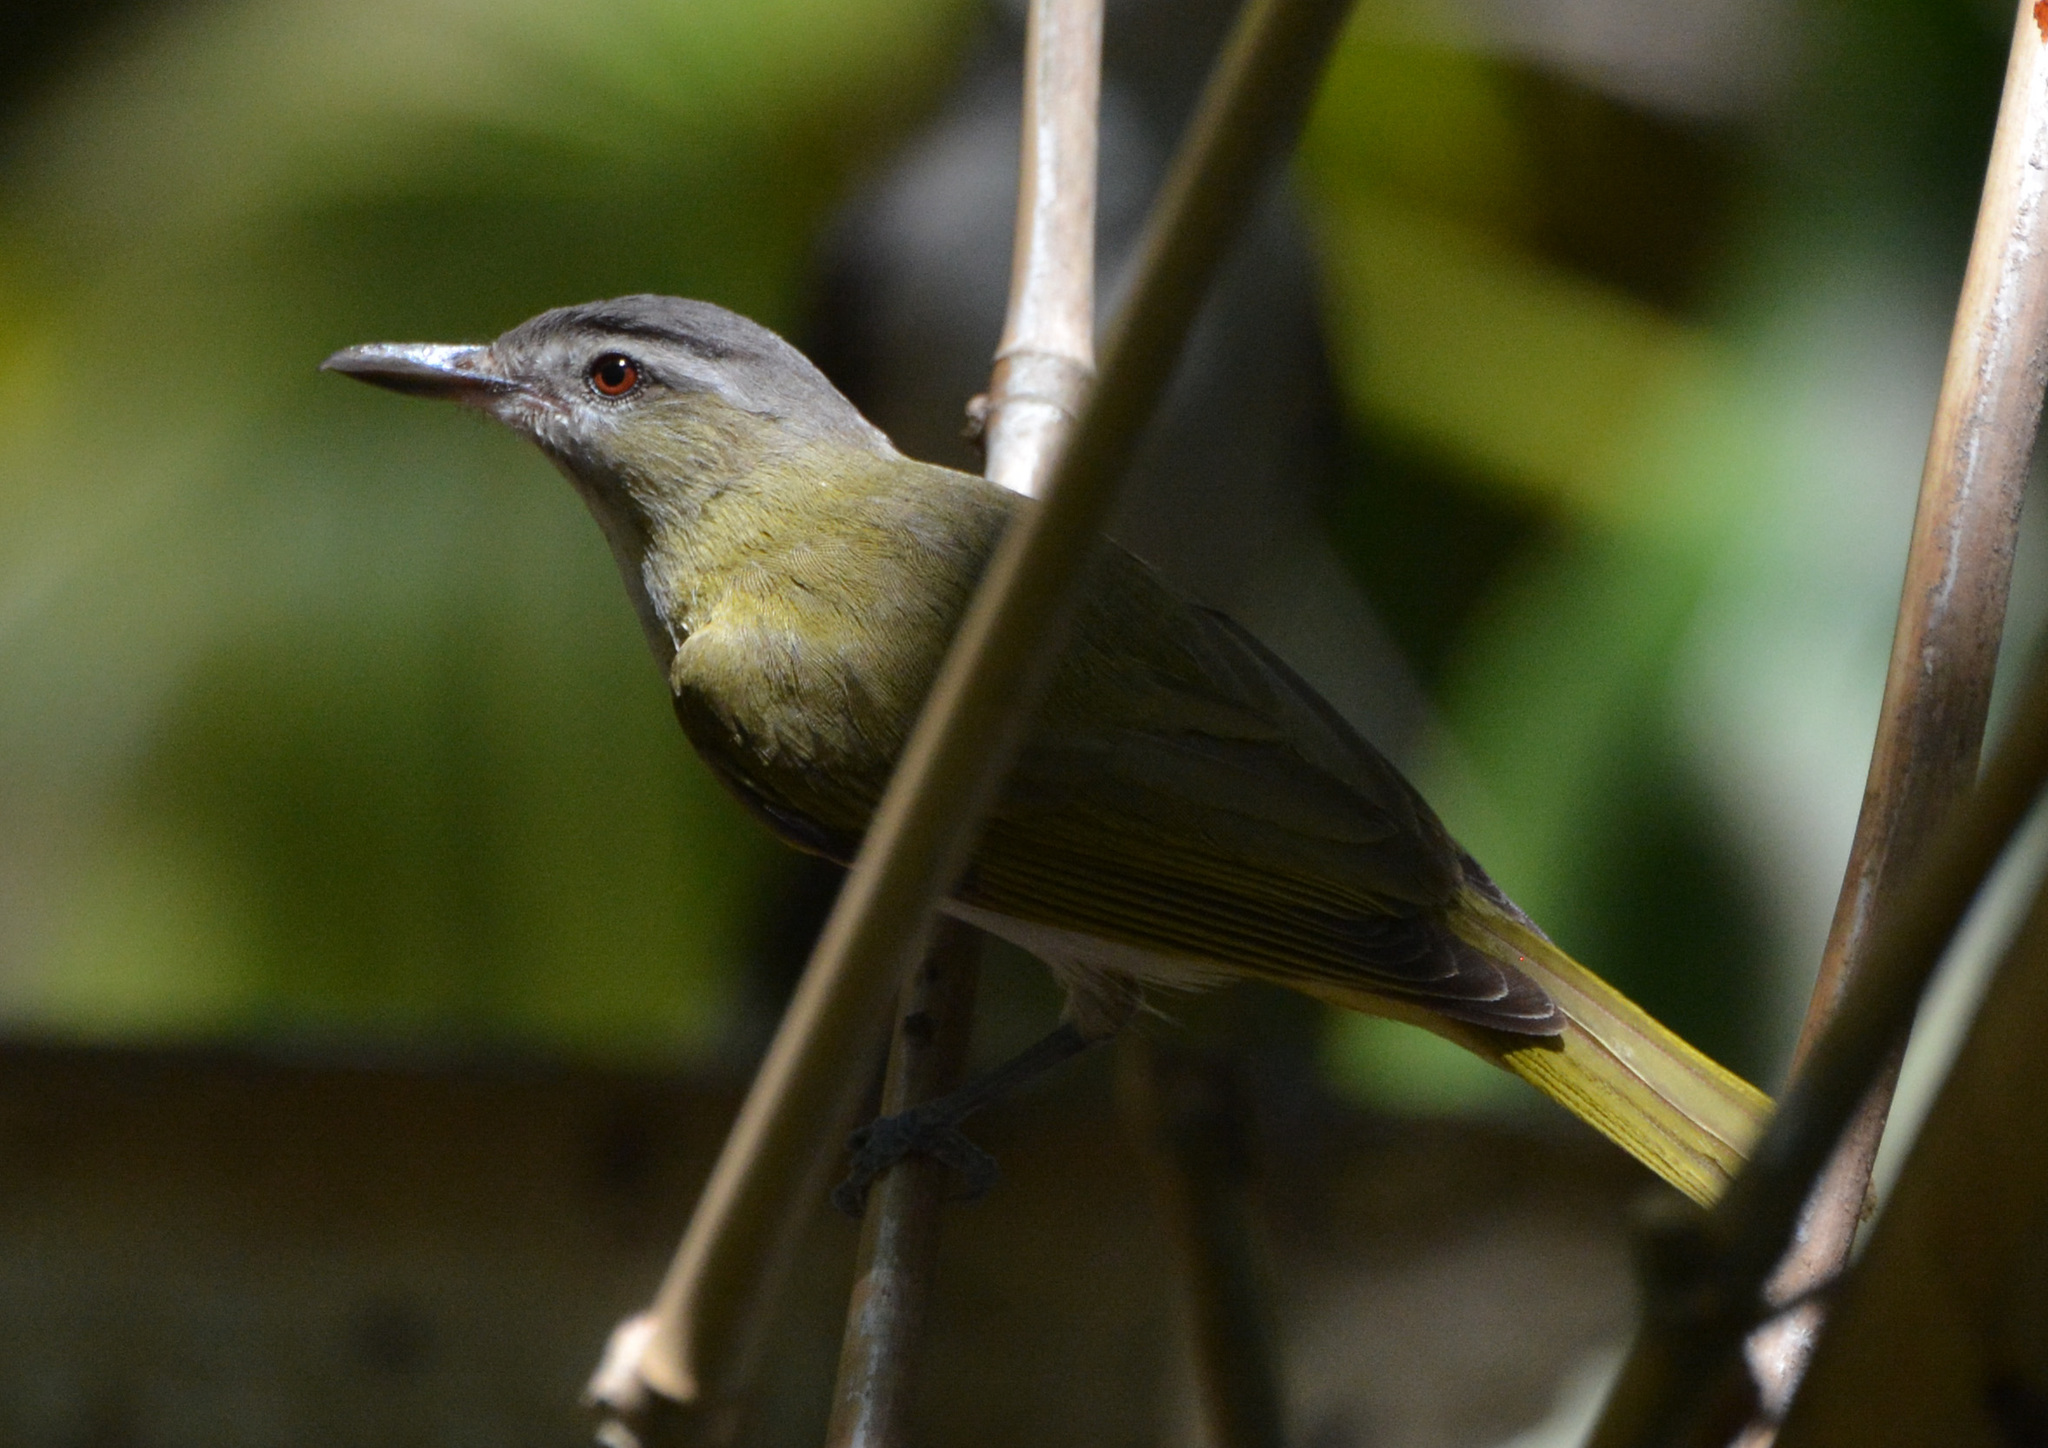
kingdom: Animalia
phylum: Chordata
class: Aves
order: Passeriformes
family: Vireonidae
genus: Vireo
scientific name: Vireo olivaceus
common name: Red-eyed vireo
